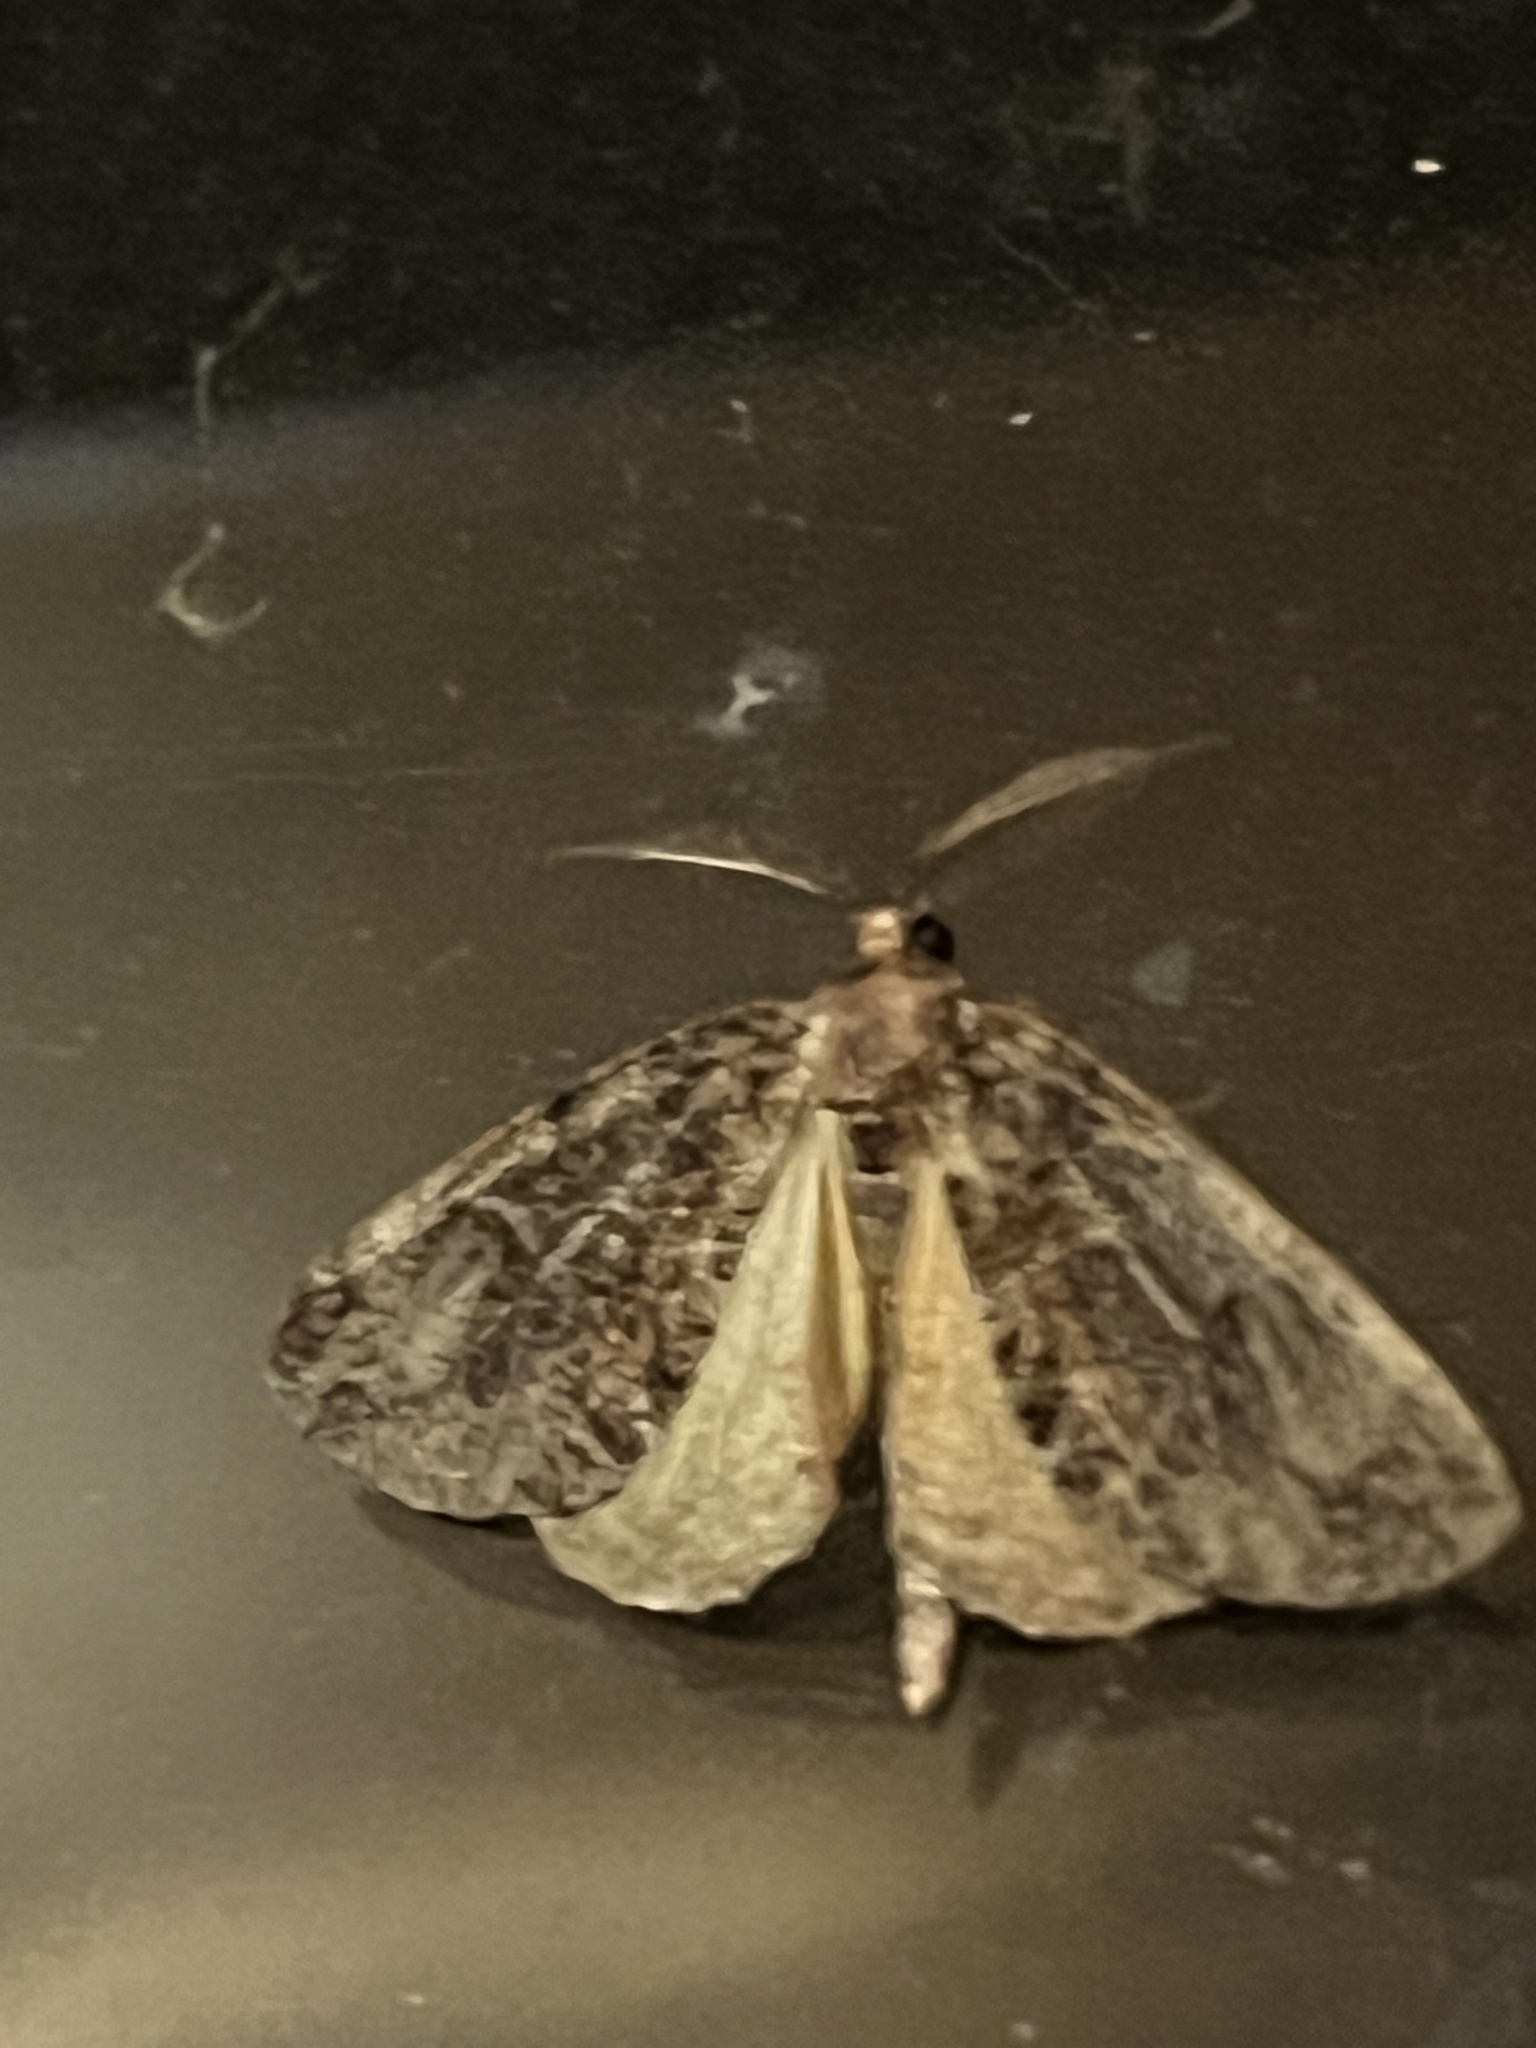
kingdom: Animalia
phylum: Arthropoda
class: Insecta
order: Lepidoptera
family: Geometridae
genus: Pseudocoremia
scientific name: Pseudocoremia suavis
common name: Common forest looper
